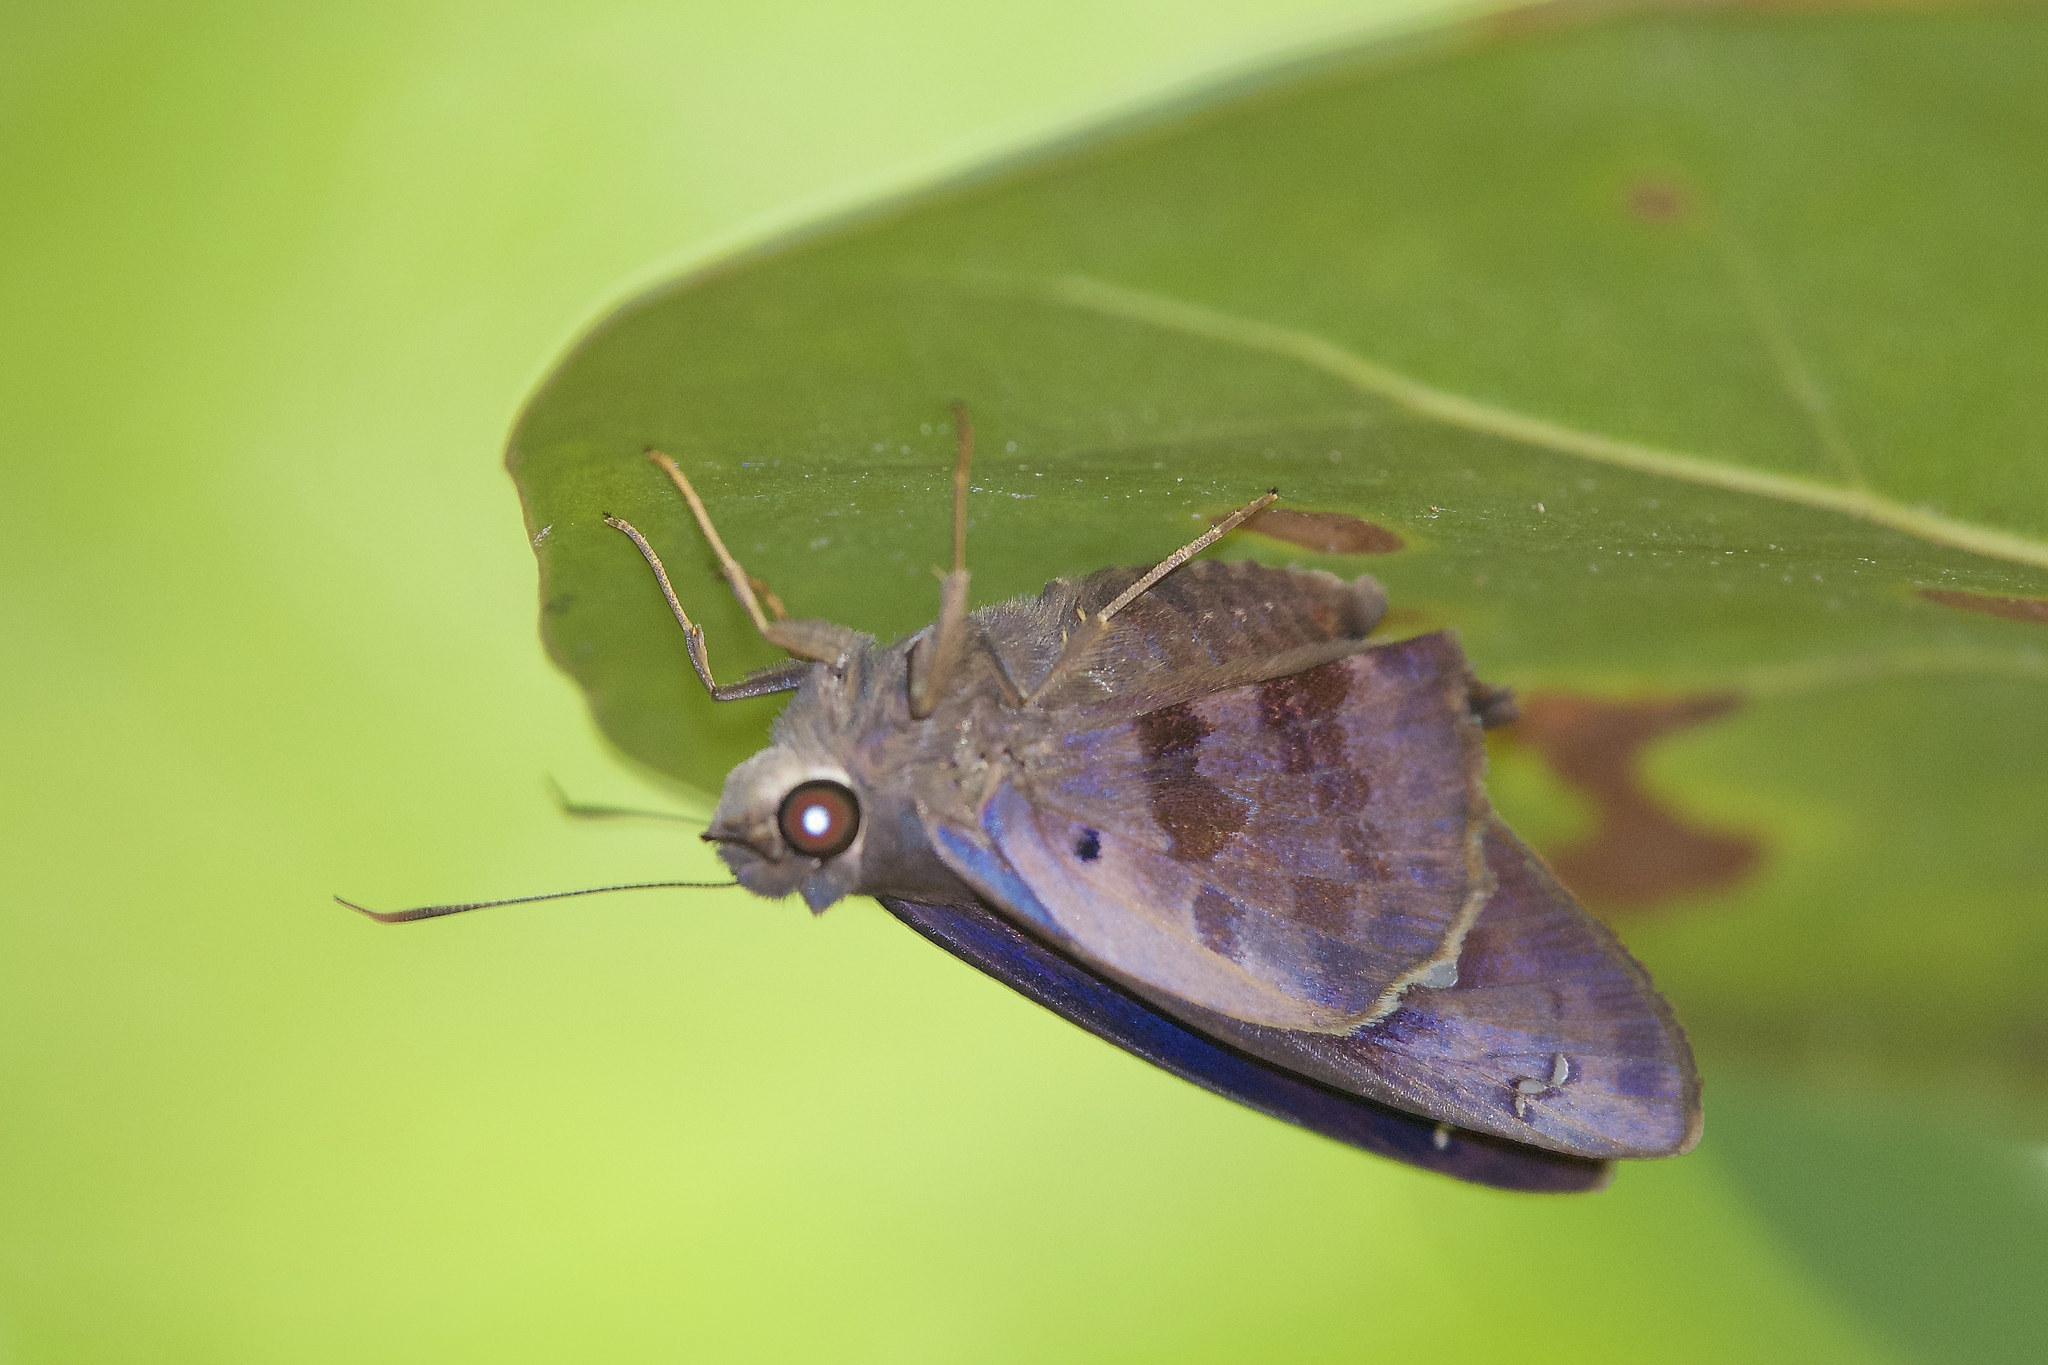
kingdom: Animalia
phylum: Arthropoda
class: Insecta
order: Lepidoptera
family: Hesperiidae
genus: Polygonus
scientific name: Polygonus leo
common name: Hammoch skipper
